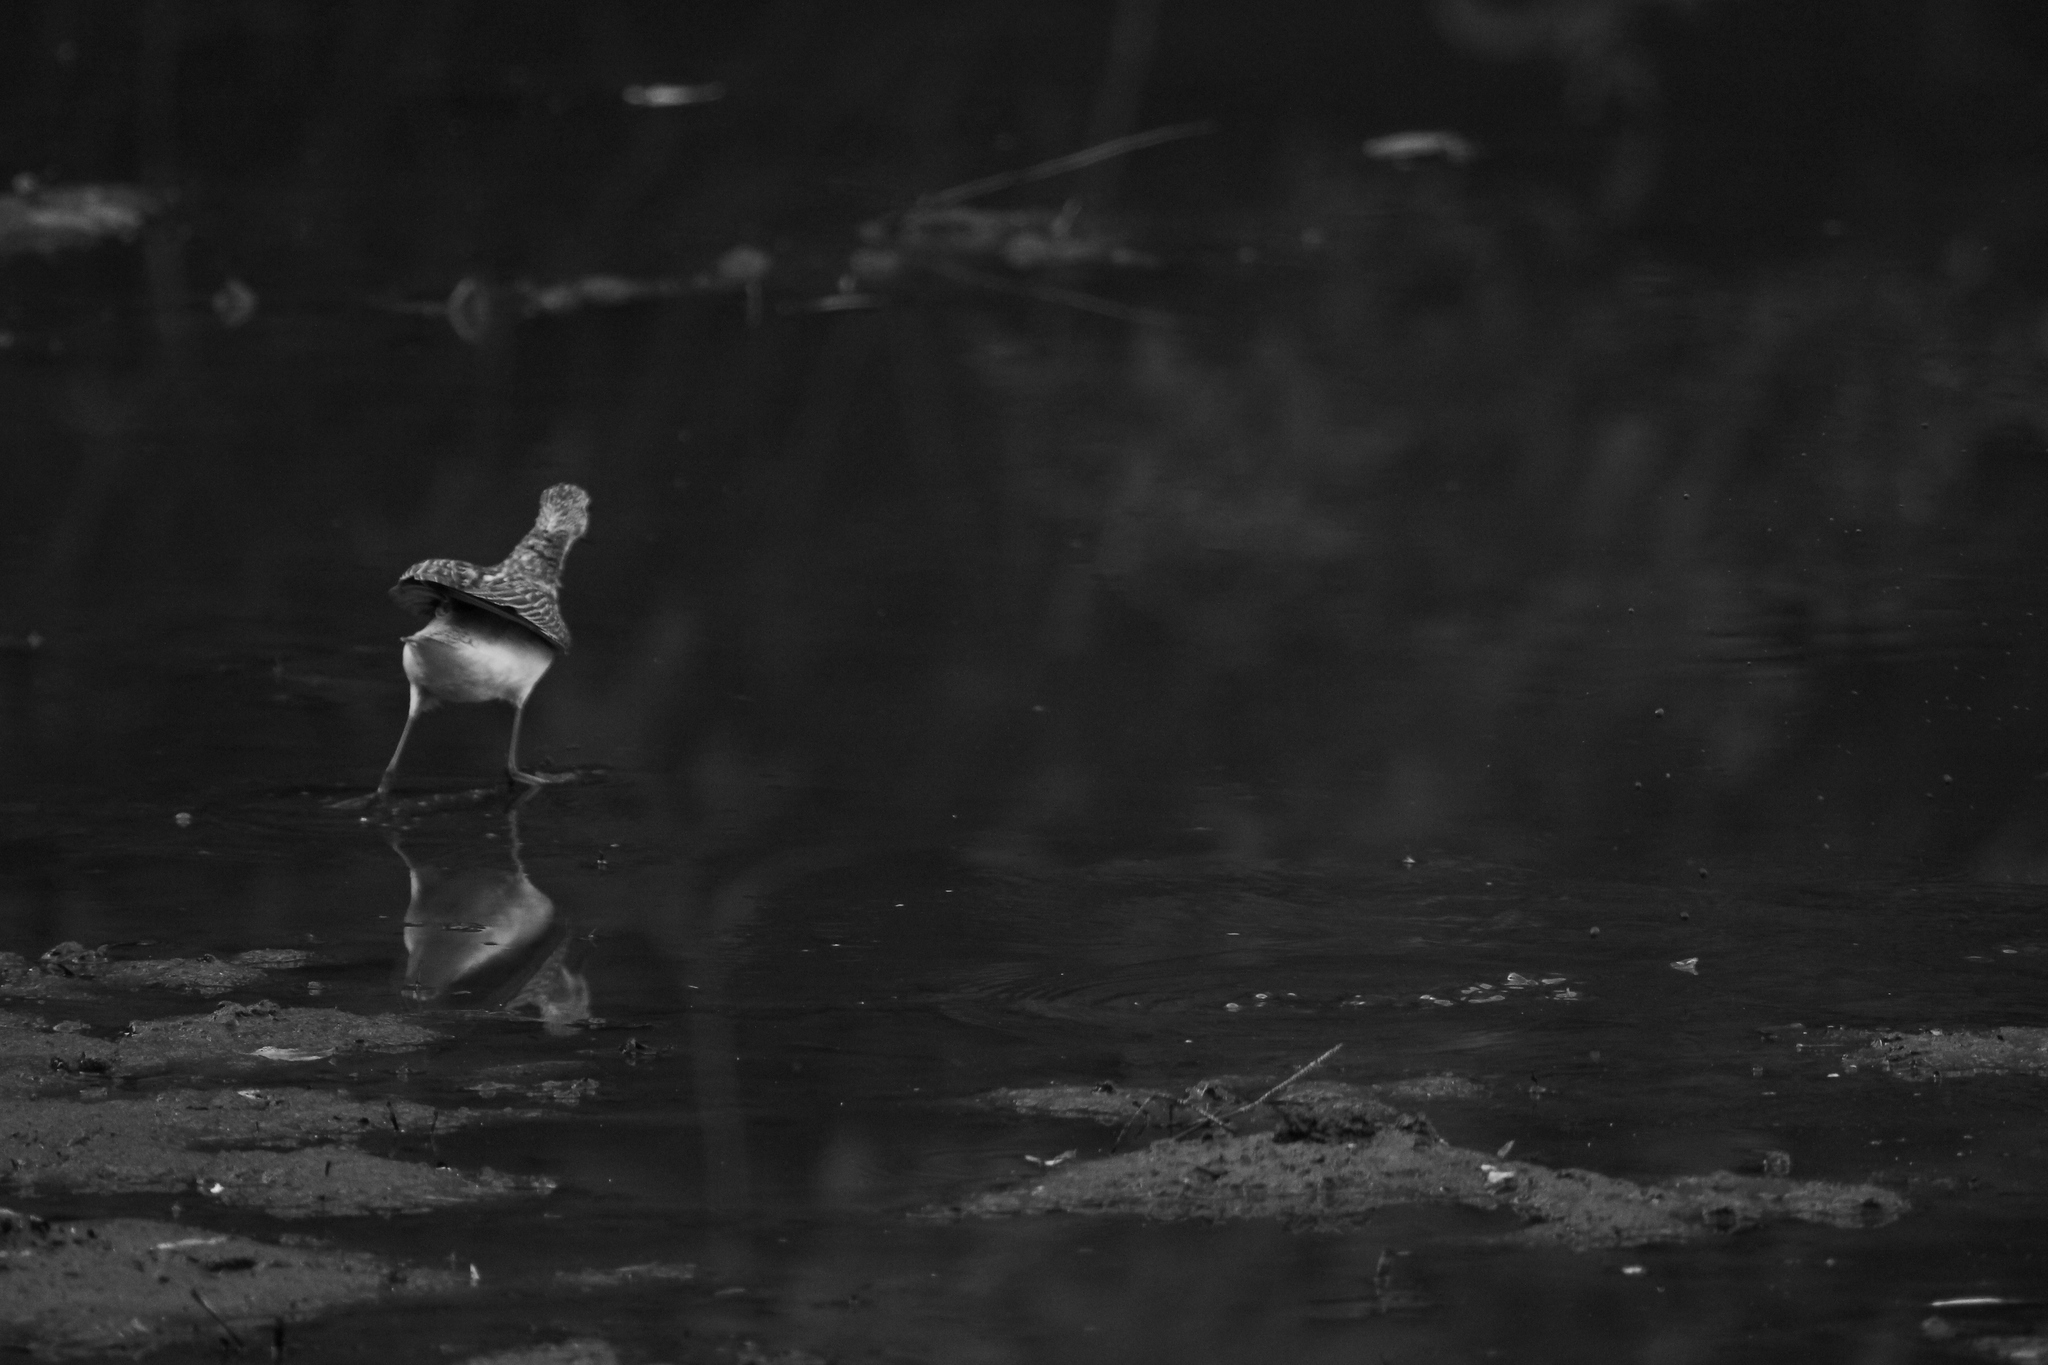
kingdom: Animalia
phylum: Chordata
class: Aves
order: Charadriiformes
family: Scolopacidae
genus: Tringa
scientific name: Tringa ochropus
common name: Green sandpiper
